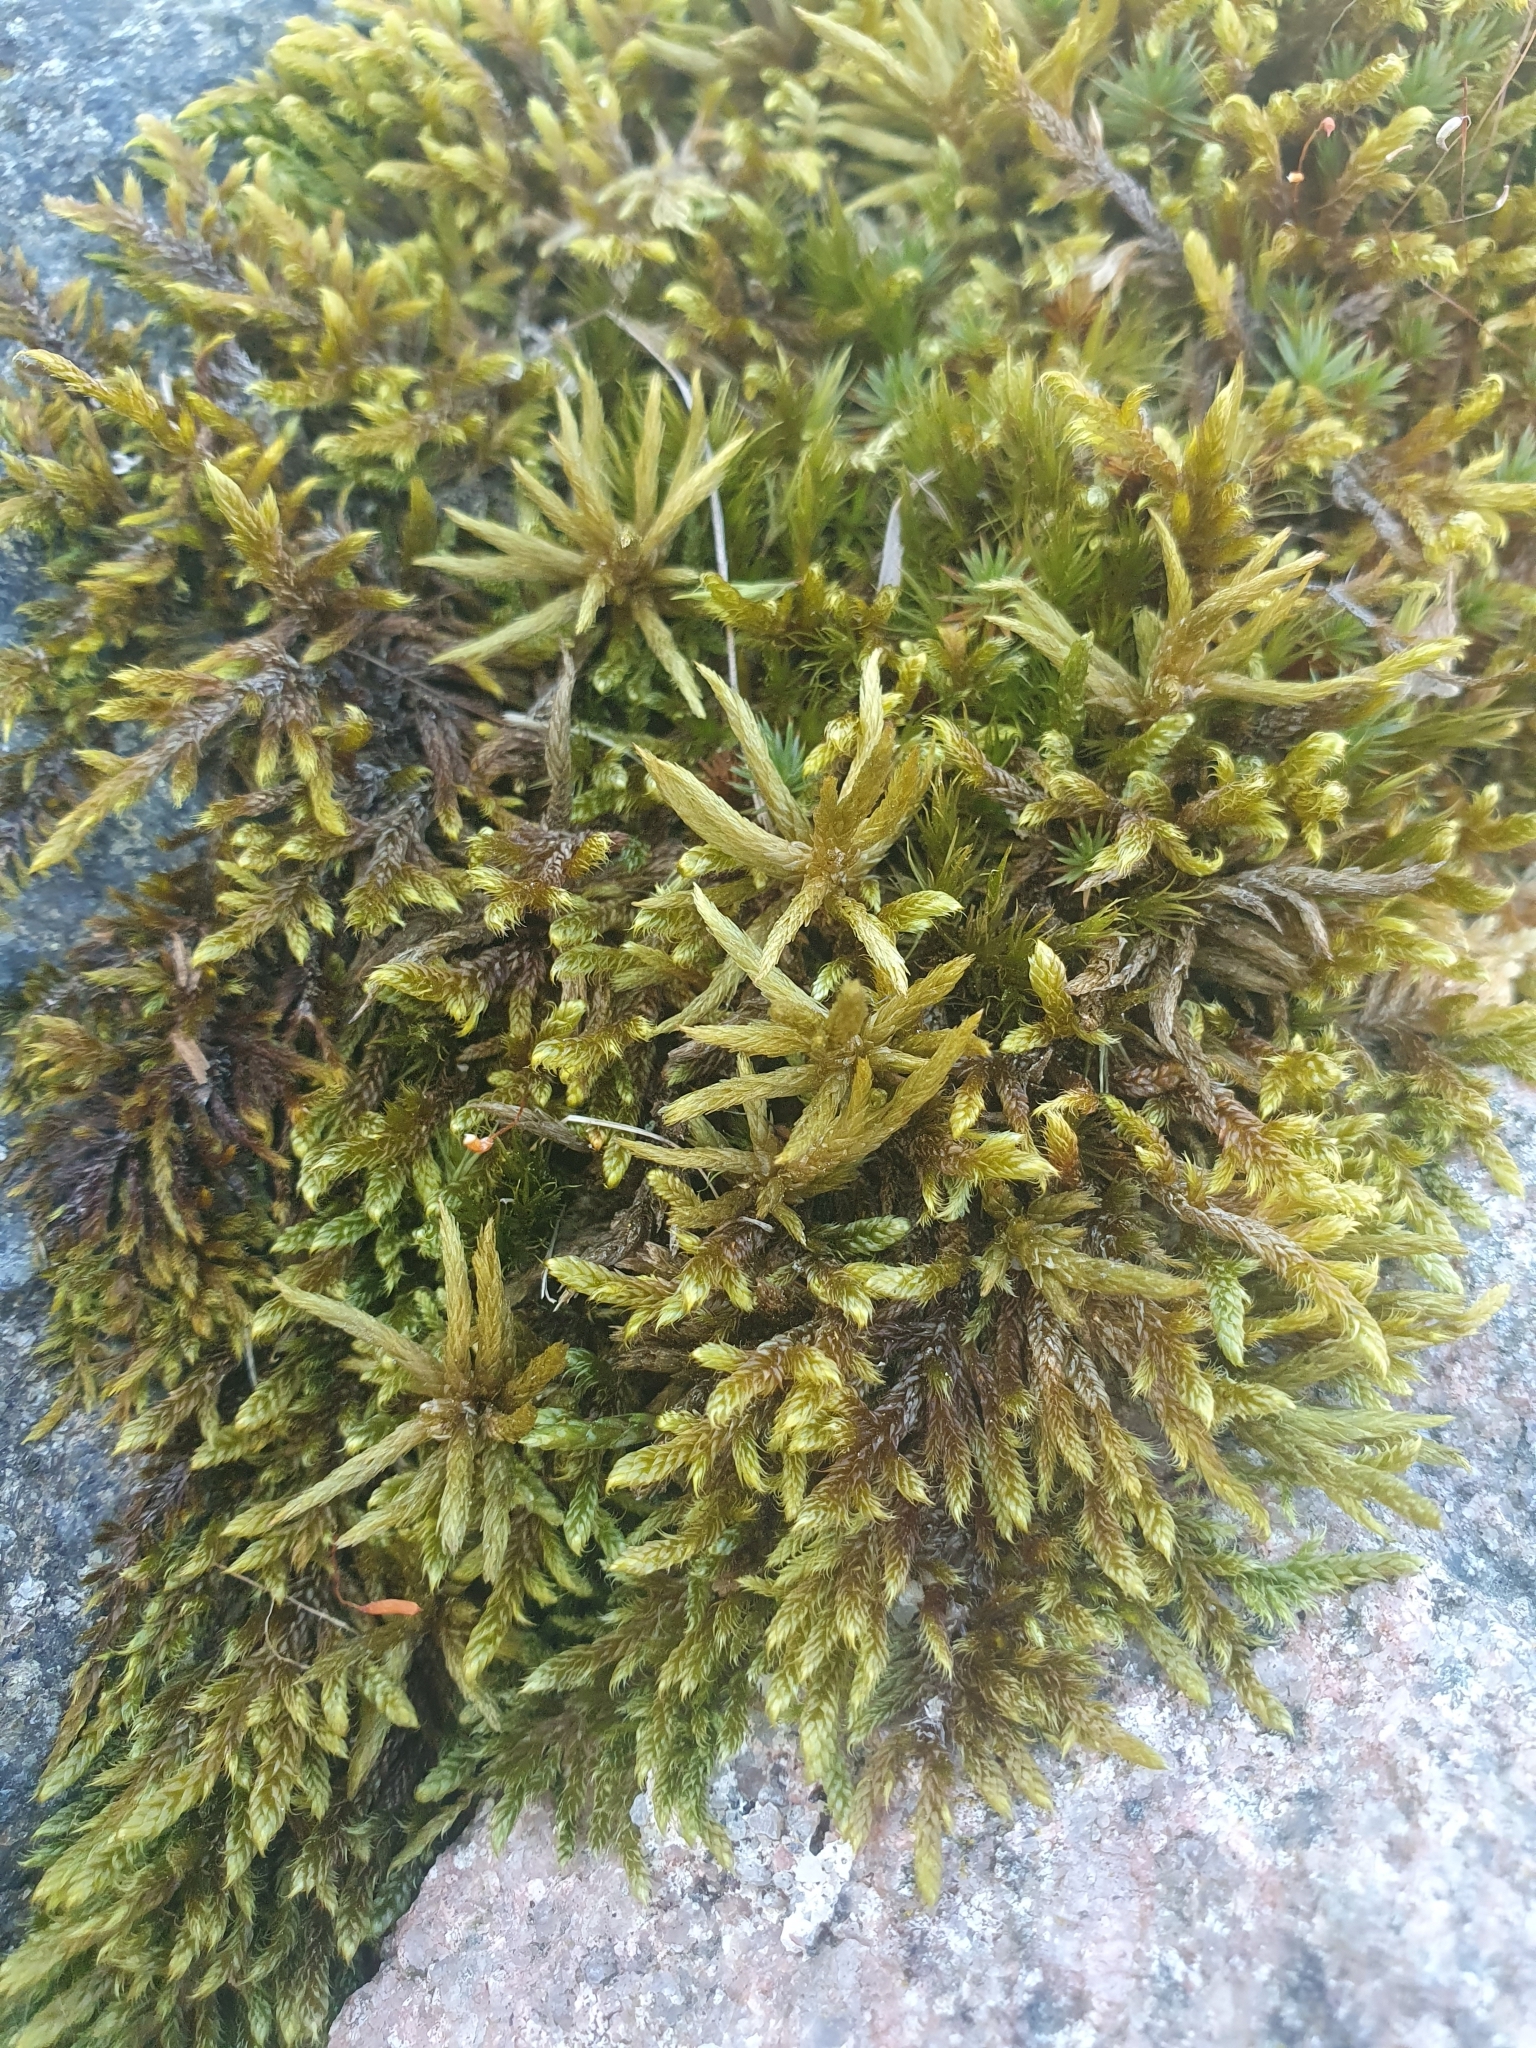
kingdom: Plantae
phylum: Bryophyta
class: Bryopsida
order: Hypnales
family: Climaciaceae
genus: Climacium
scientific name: Climacium dendroides
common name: Northern tree moss
